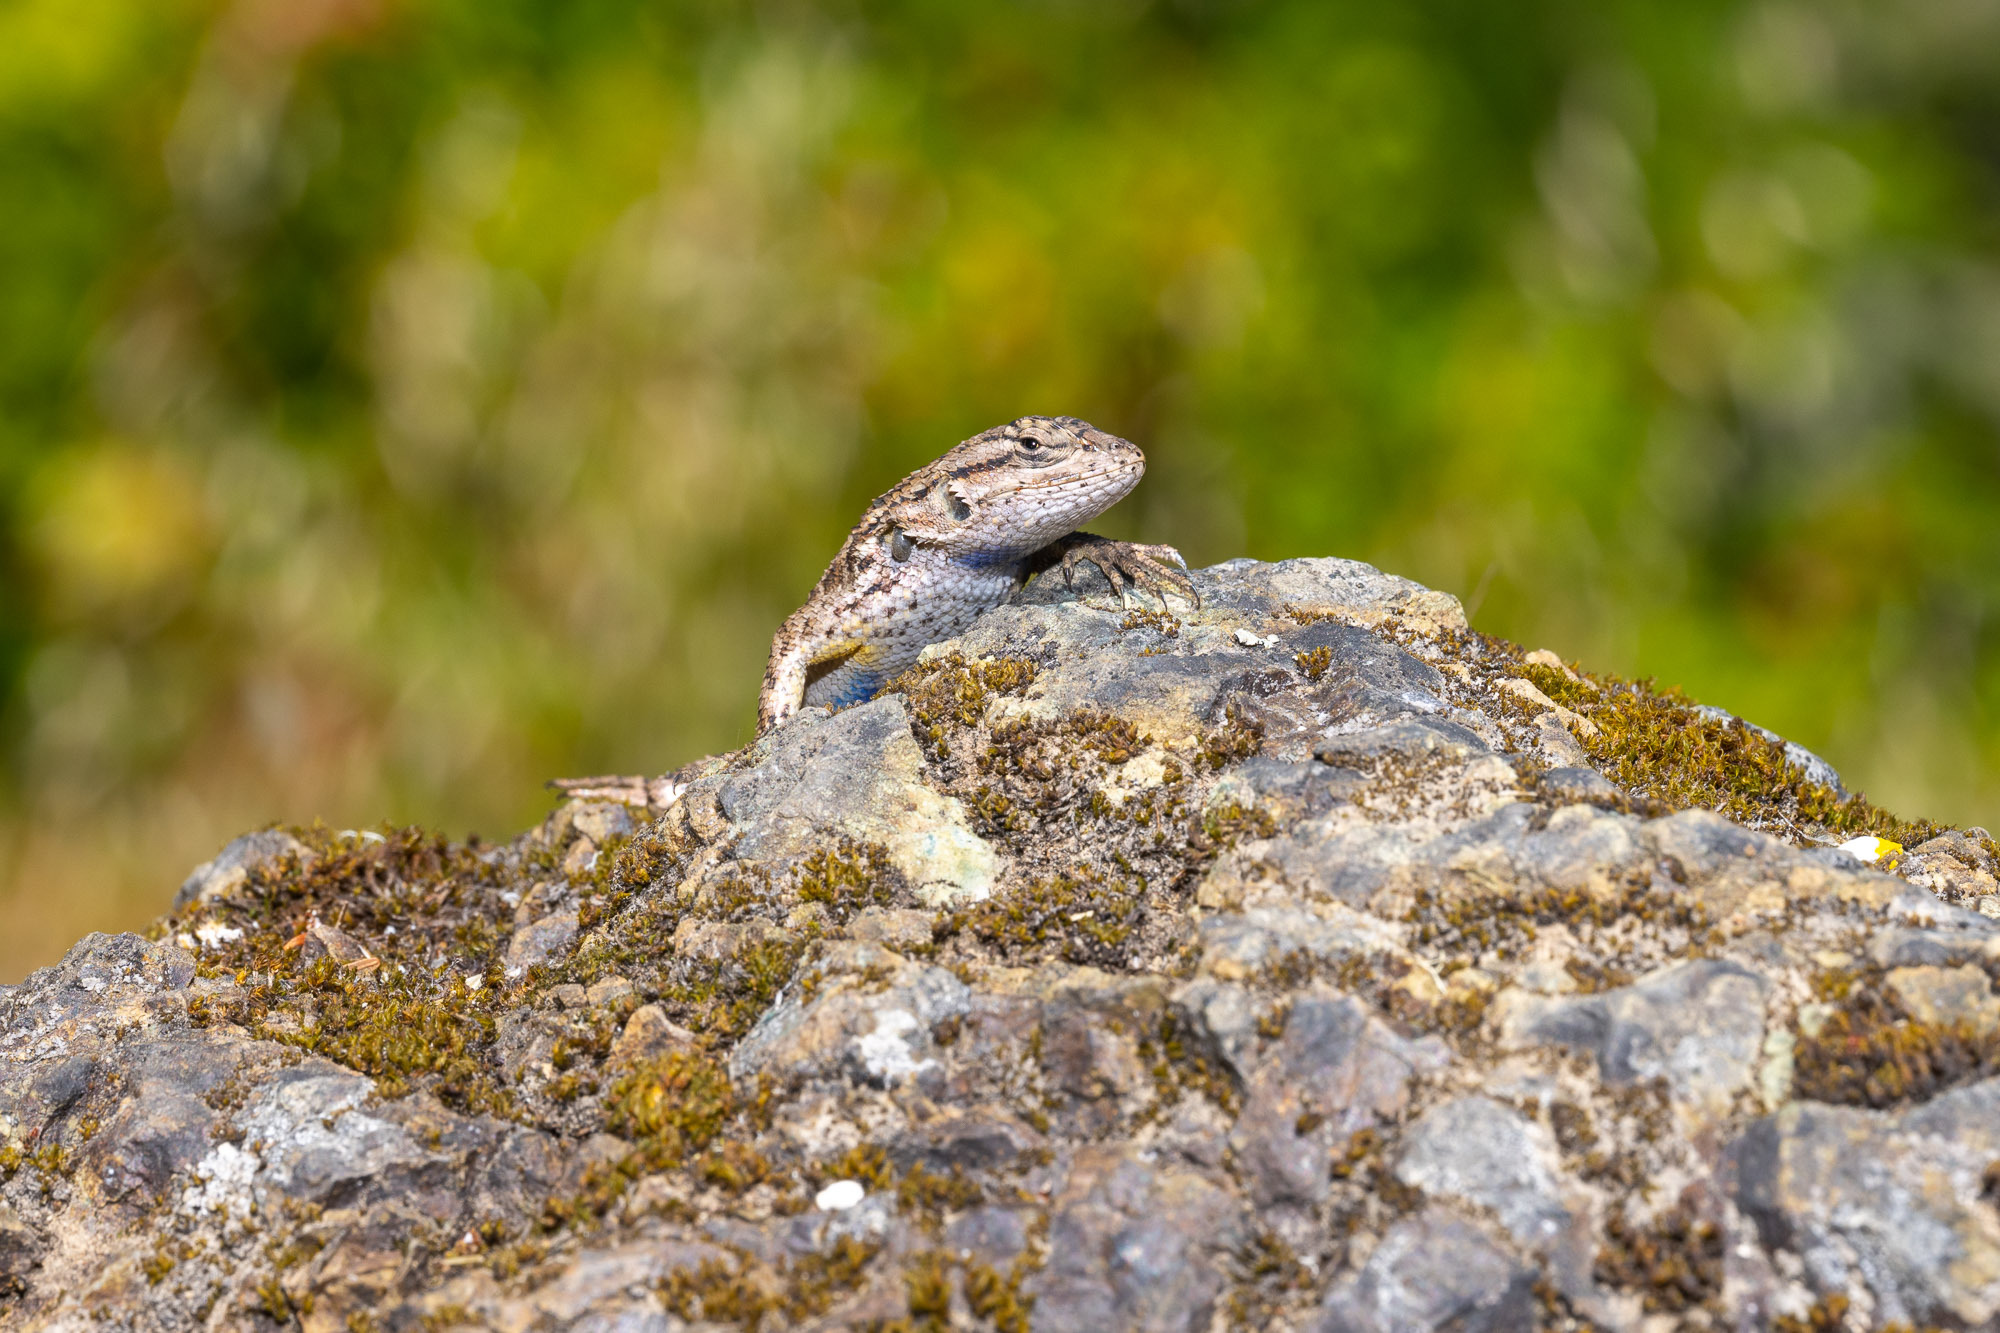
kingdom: Animalia
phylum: Chordata
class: Squamata
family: Phrynosomatidae
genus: Sceloporus
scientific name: Sceloporus occidentalis
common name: Western fence lizard
